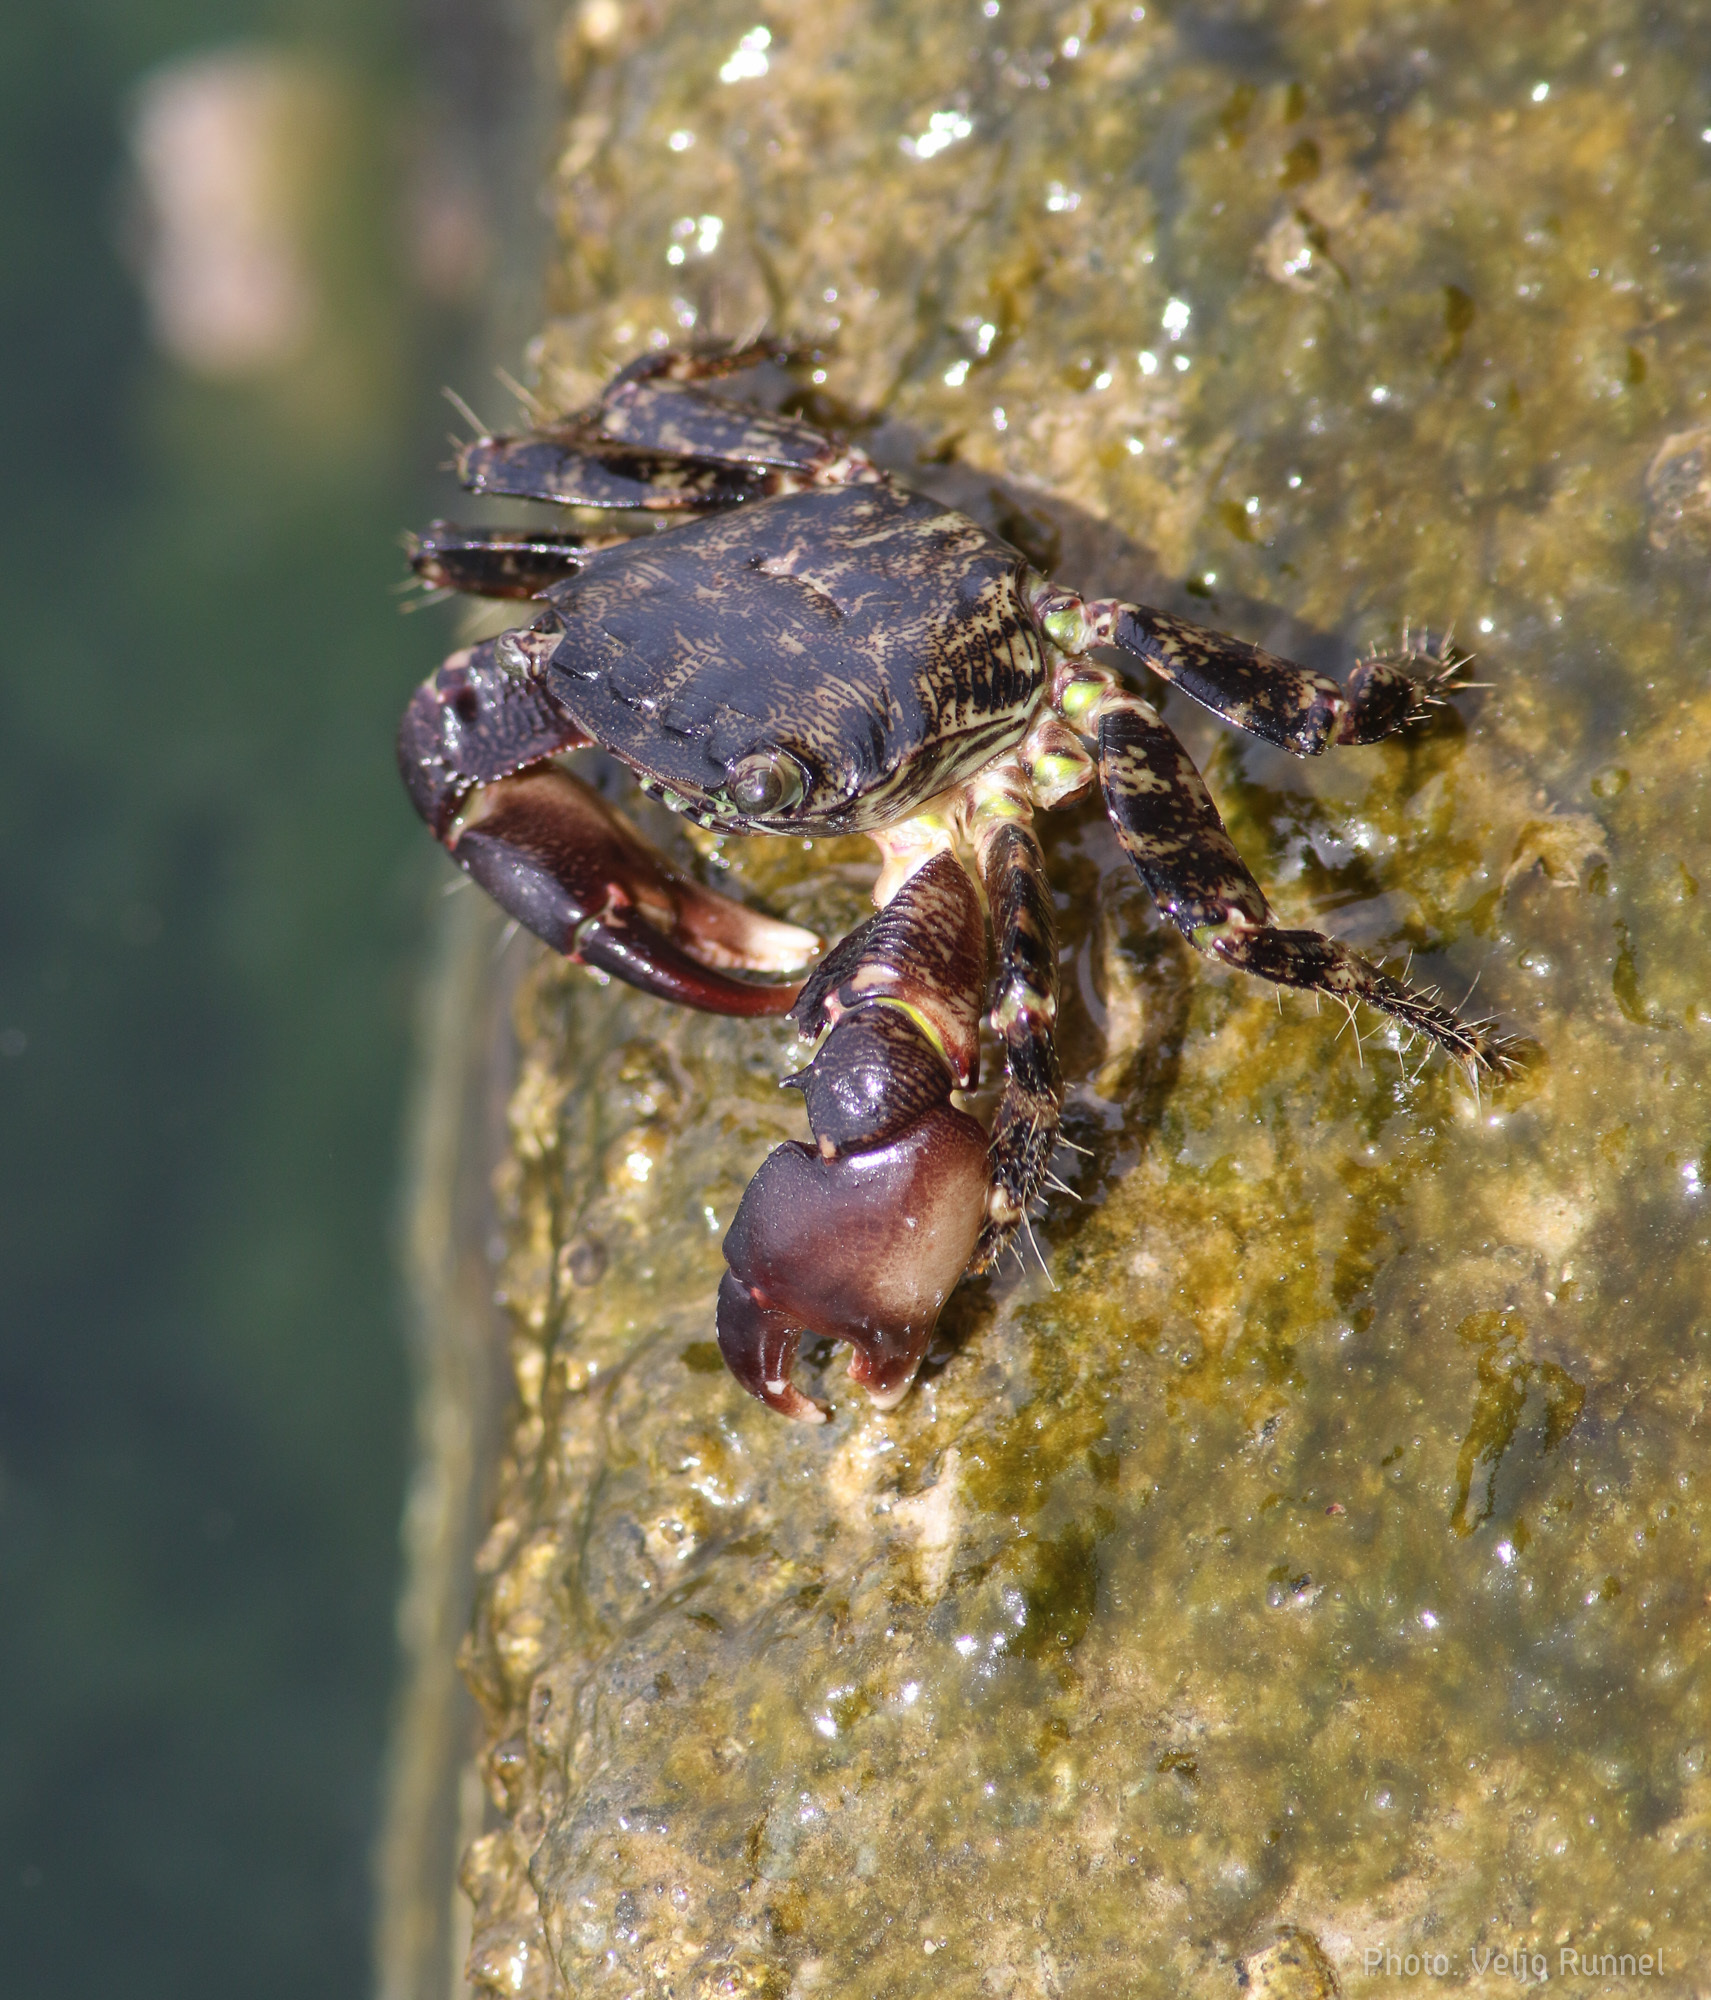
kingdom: Animalia
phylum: Arthropoda
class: Malacostraca
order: Decapoda
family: Grapsidae
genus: Pachygrapsus
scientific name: Pachygrapsus marmoratus
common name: Marbled rock crab
